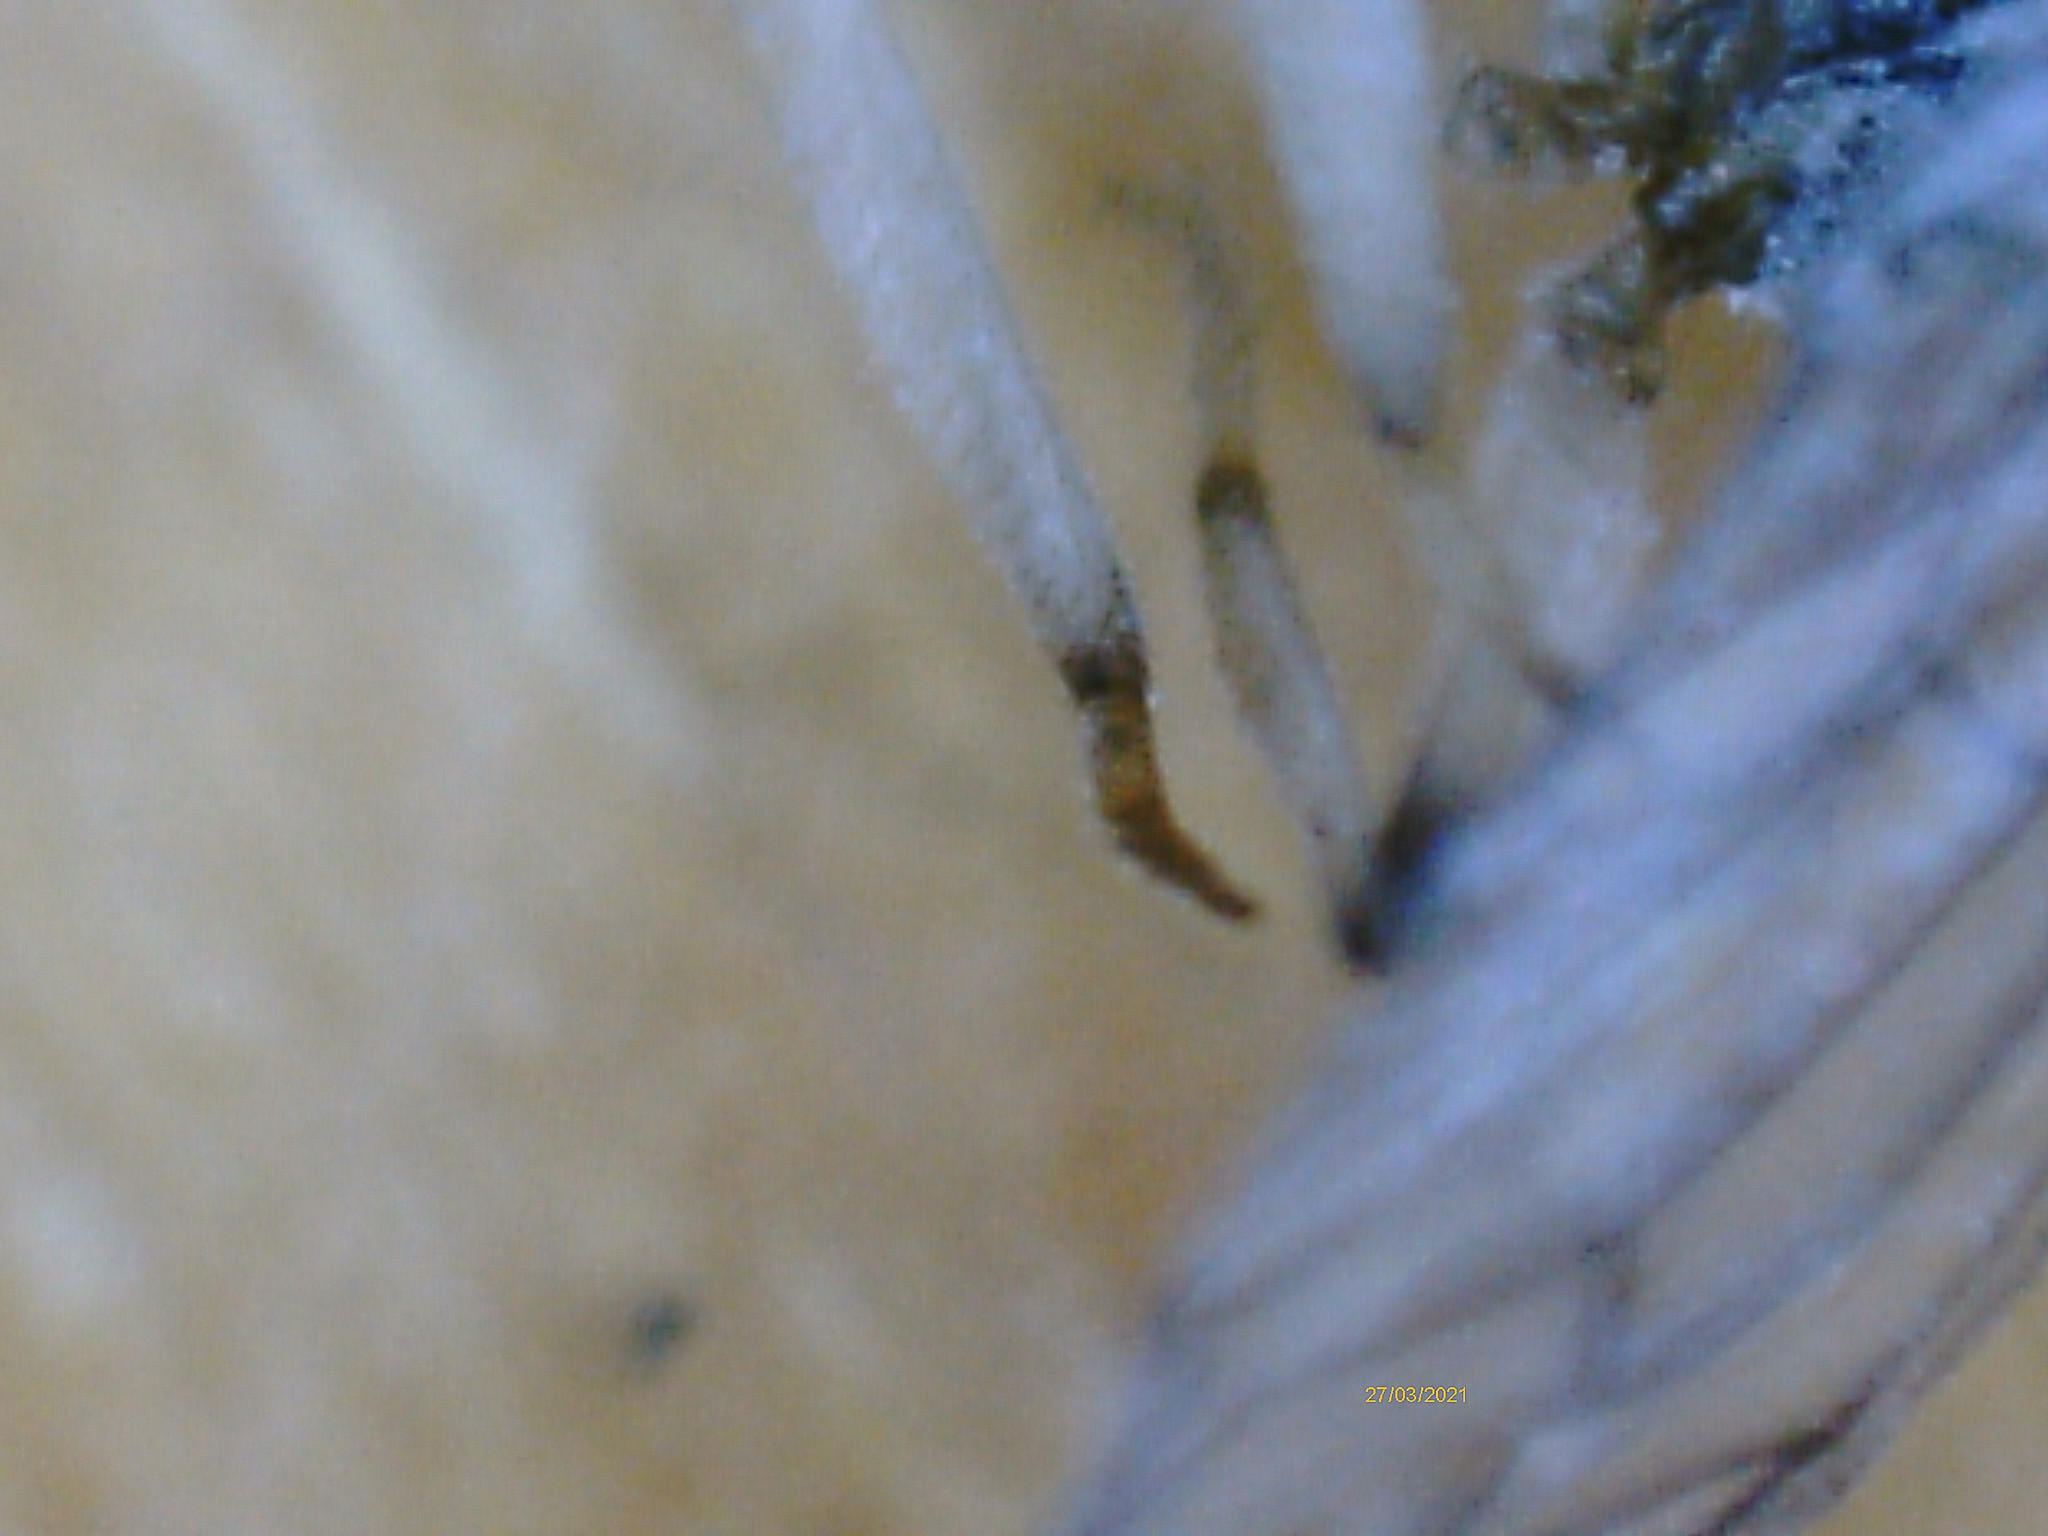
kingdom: Animalia
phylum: Arthropoda
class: Insecta
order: Neuroptera
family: Coniopterygidae
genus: Conwentzia
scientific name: Conwentzia psociformis
